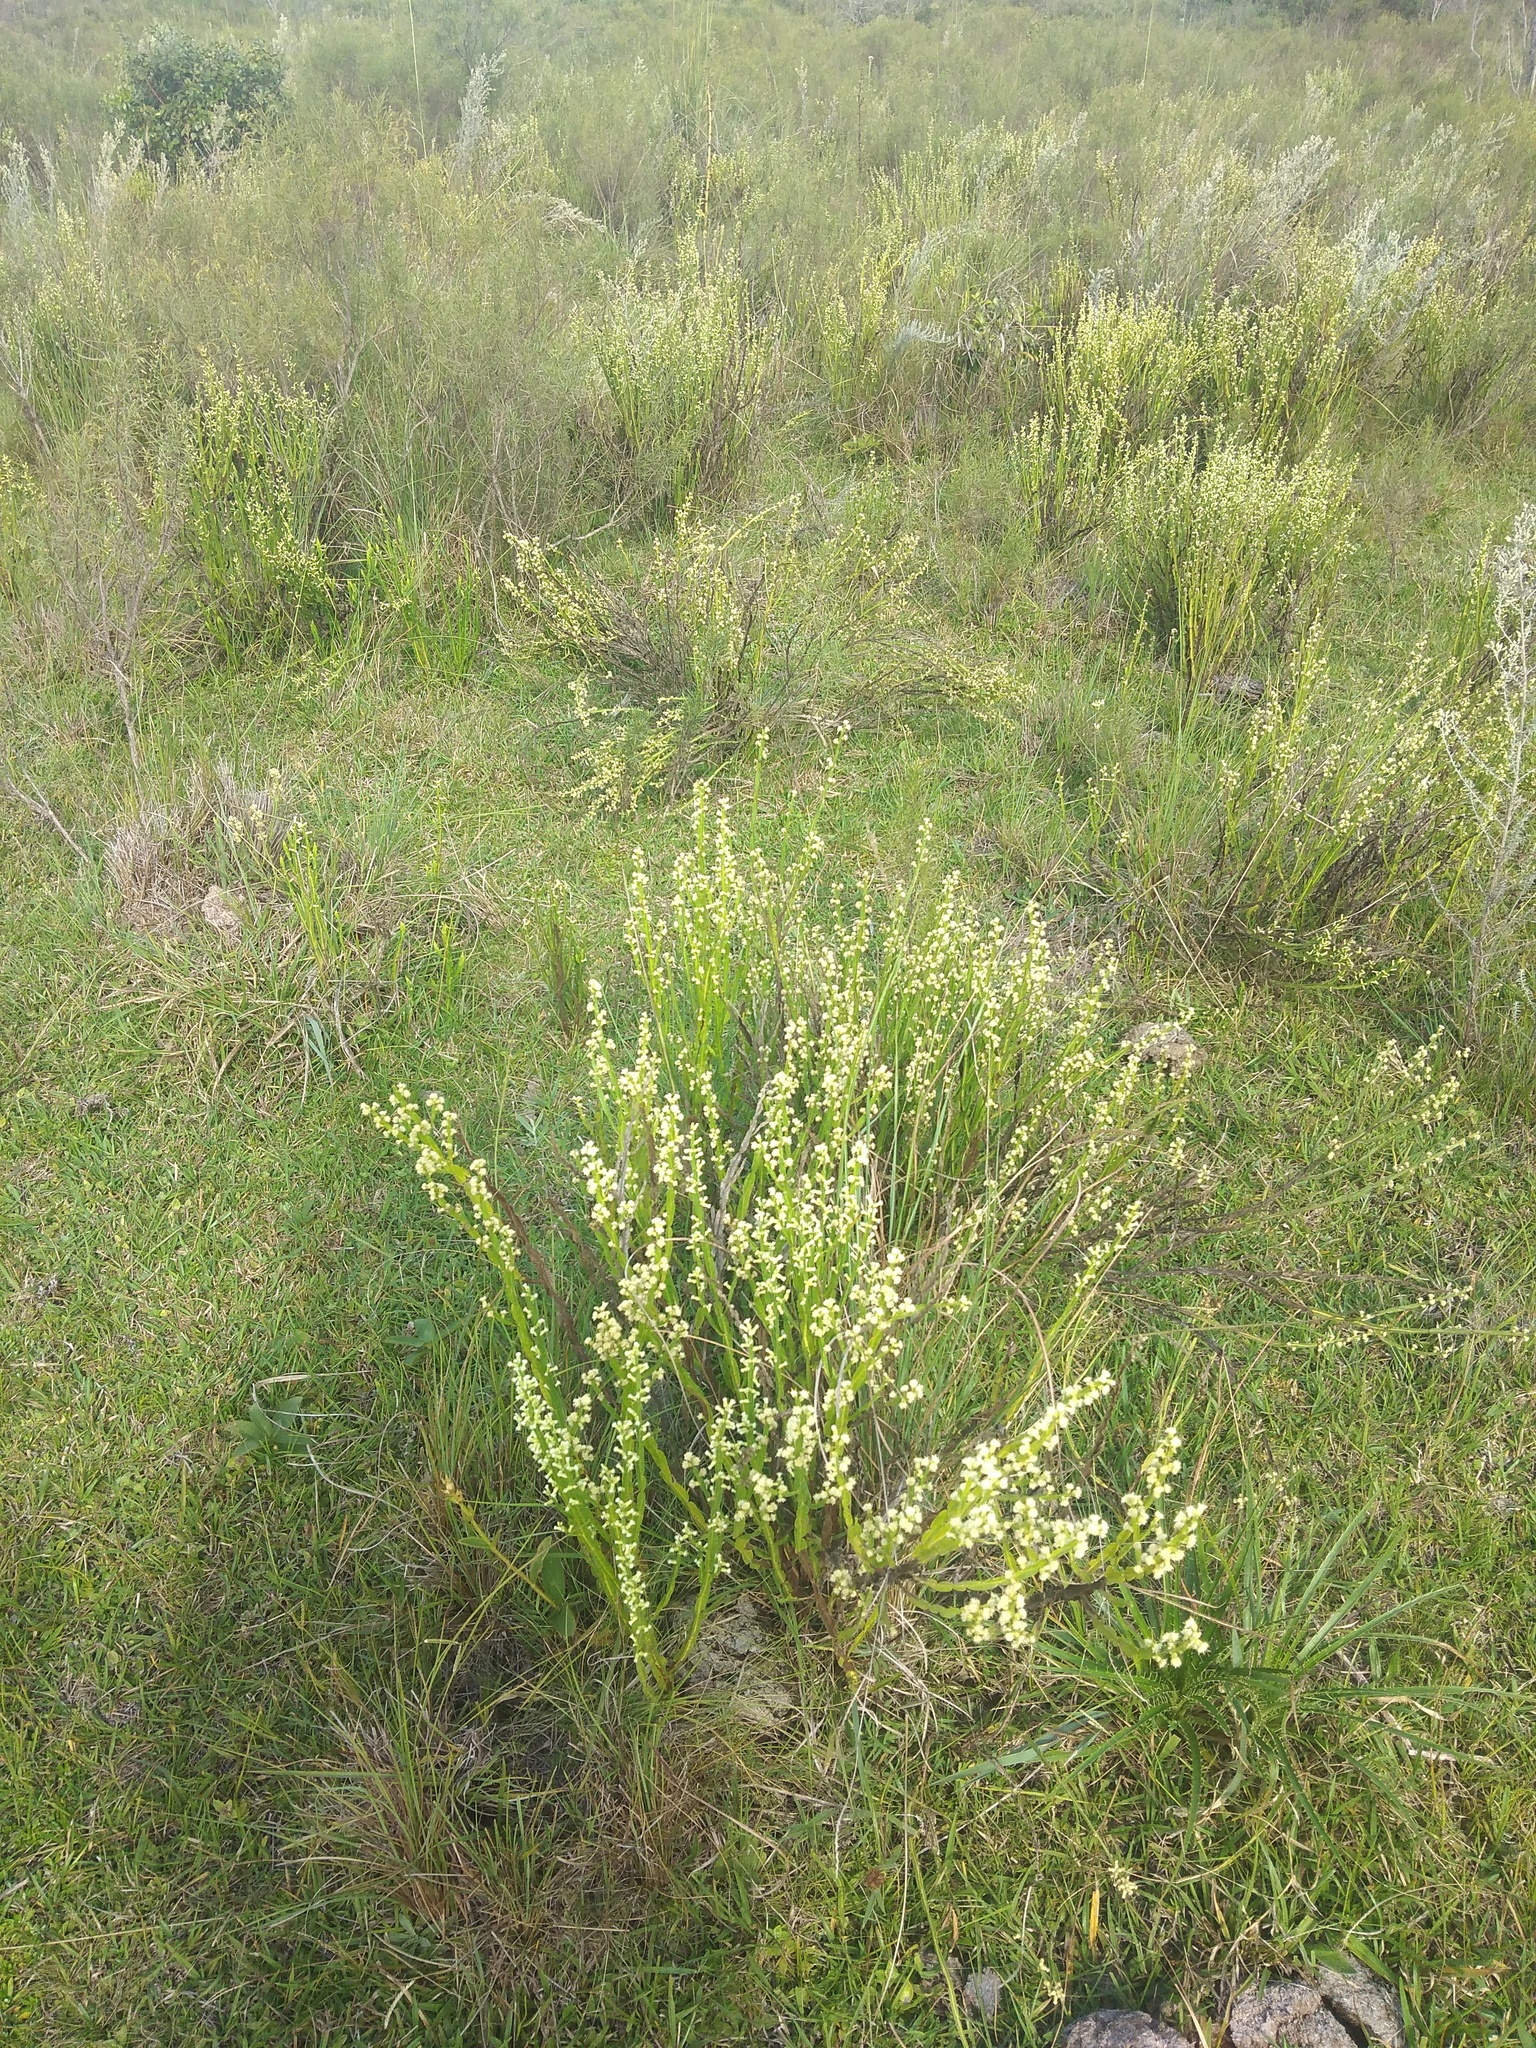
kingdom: Plantae
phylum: Tracheophyta
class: Magnoliopsida
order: Asterales
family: Asteraceae
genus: Baccharis
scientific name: Baccharis trimera
